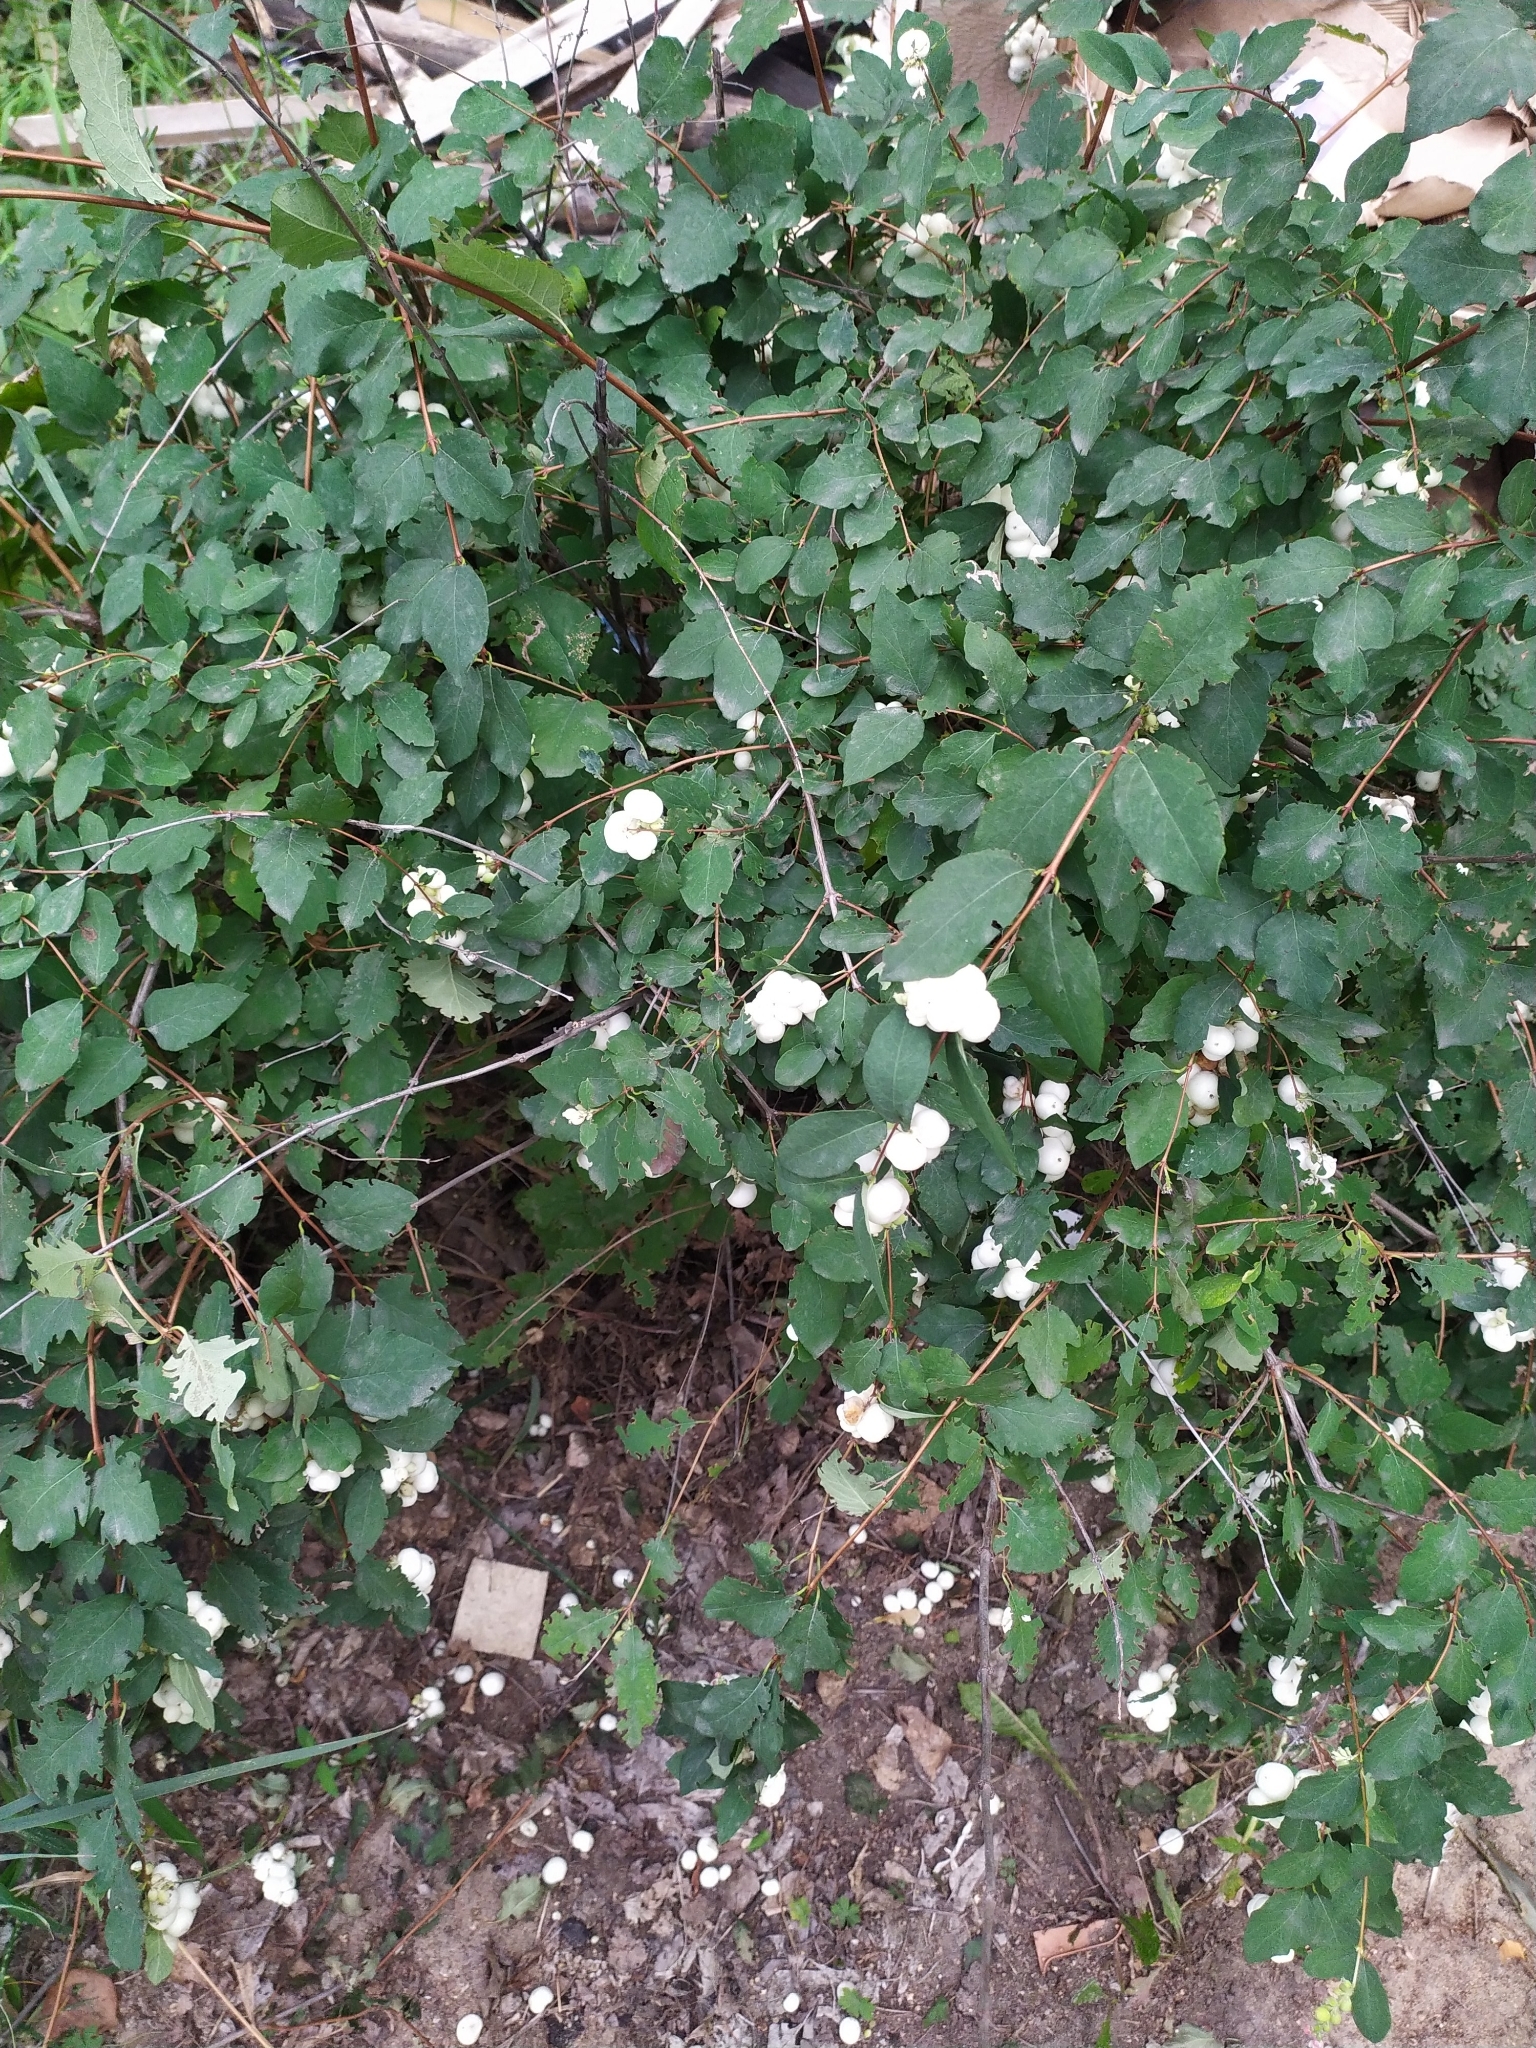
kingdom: Plantae
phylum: Tracheophyta
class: Magnoliopsida
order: Dipsacales
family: Caprifoliaceae
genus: Symphoricarpos
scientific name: Symphoricarpos albus
